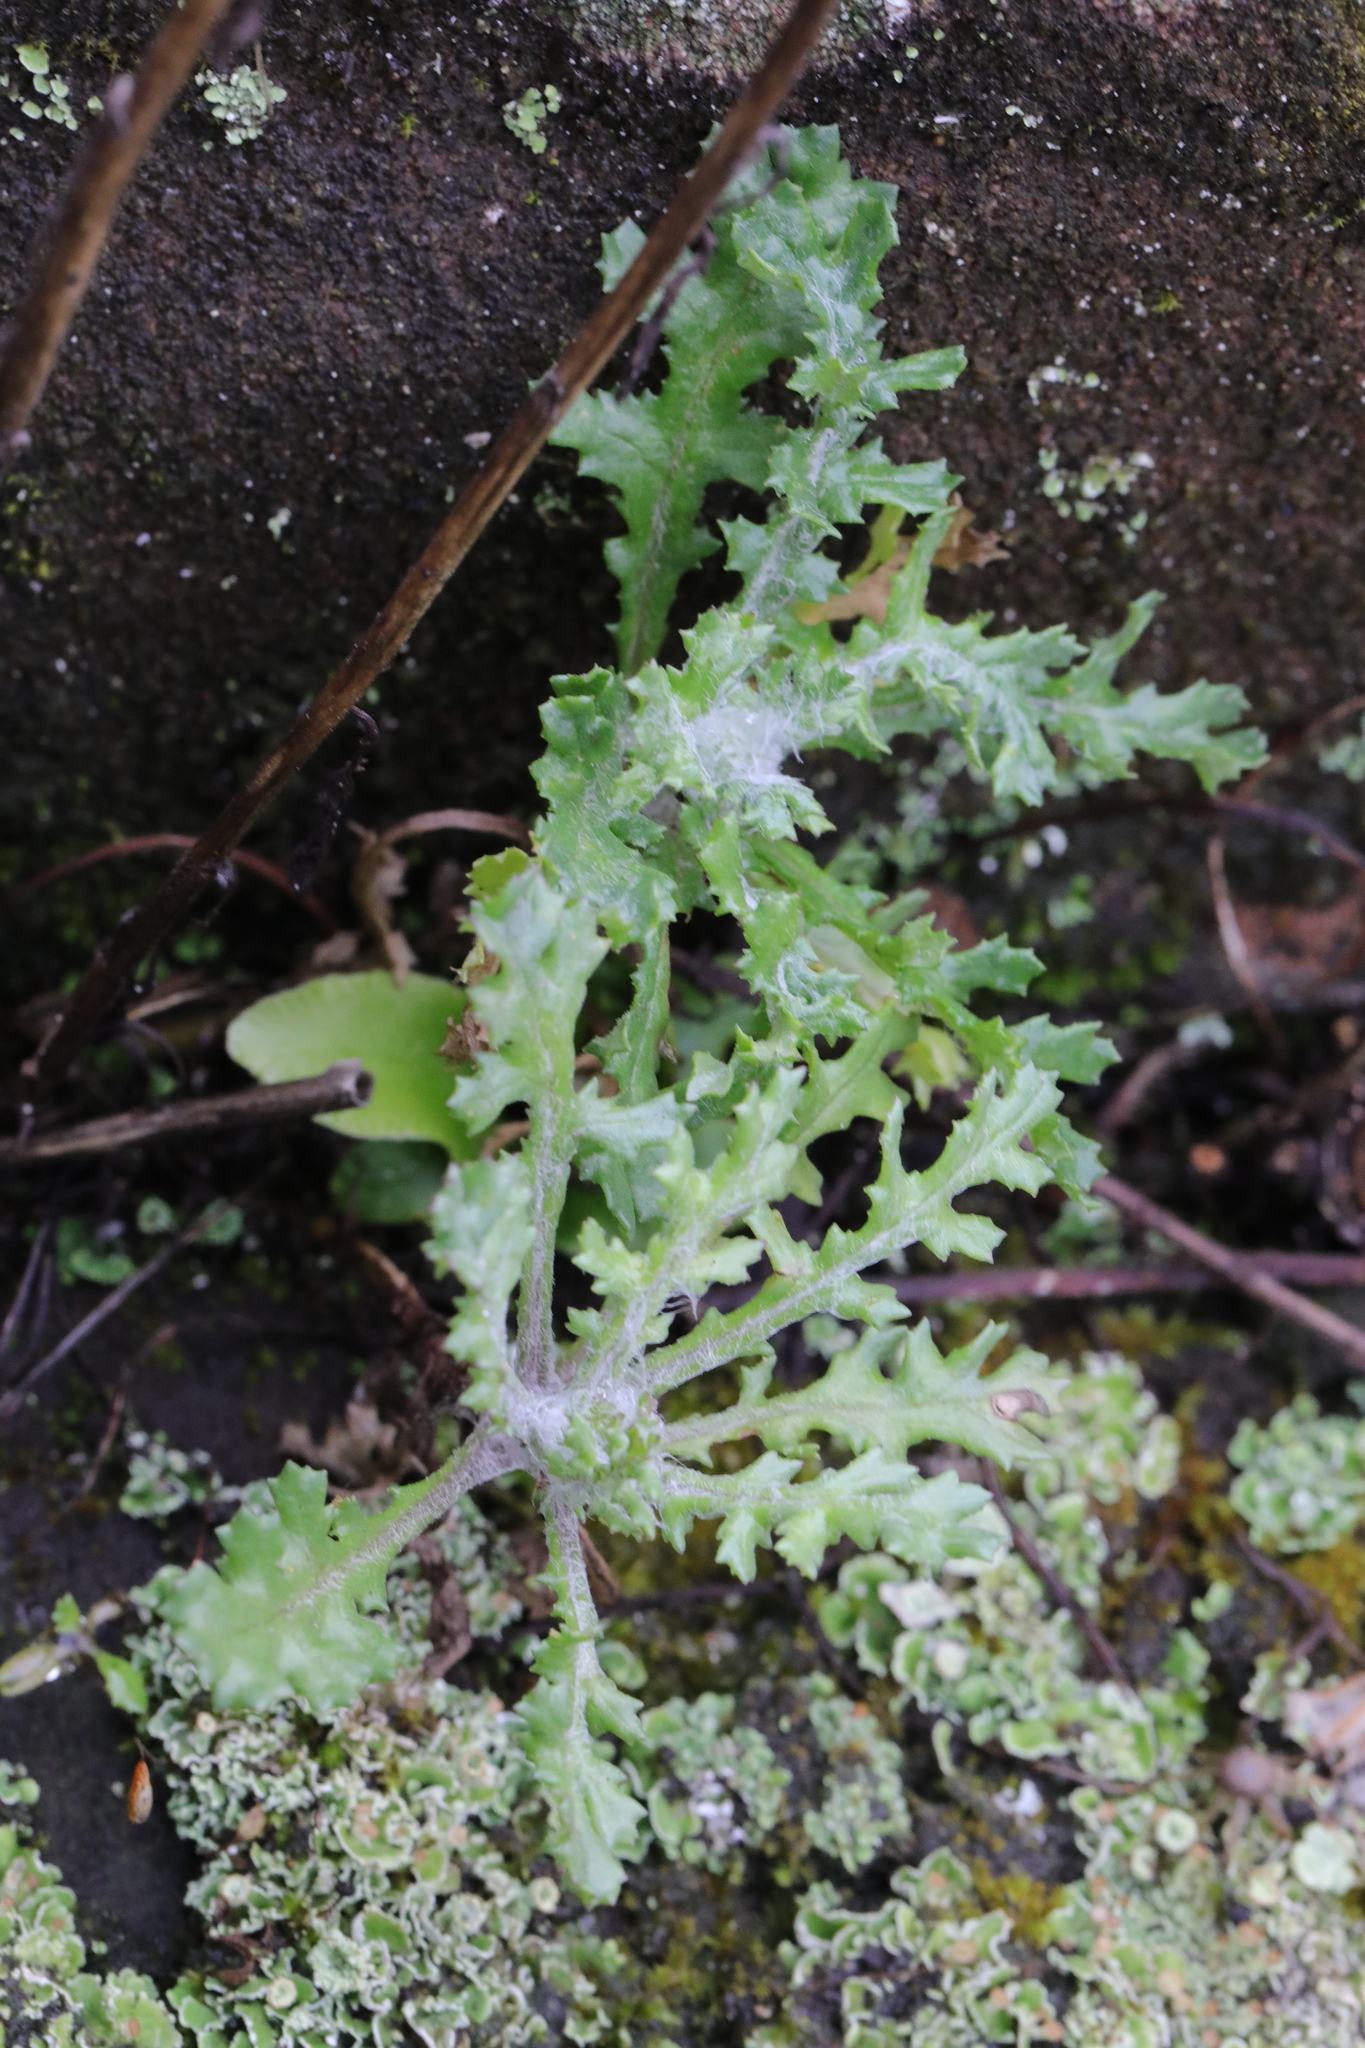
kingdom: Plantae
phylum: Tracheophyta
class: Magnoliopsida
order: Asterales
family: Asteraceae
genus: Senecio
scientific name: Senecio vulgaris
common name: Old-man-in-the-spring
